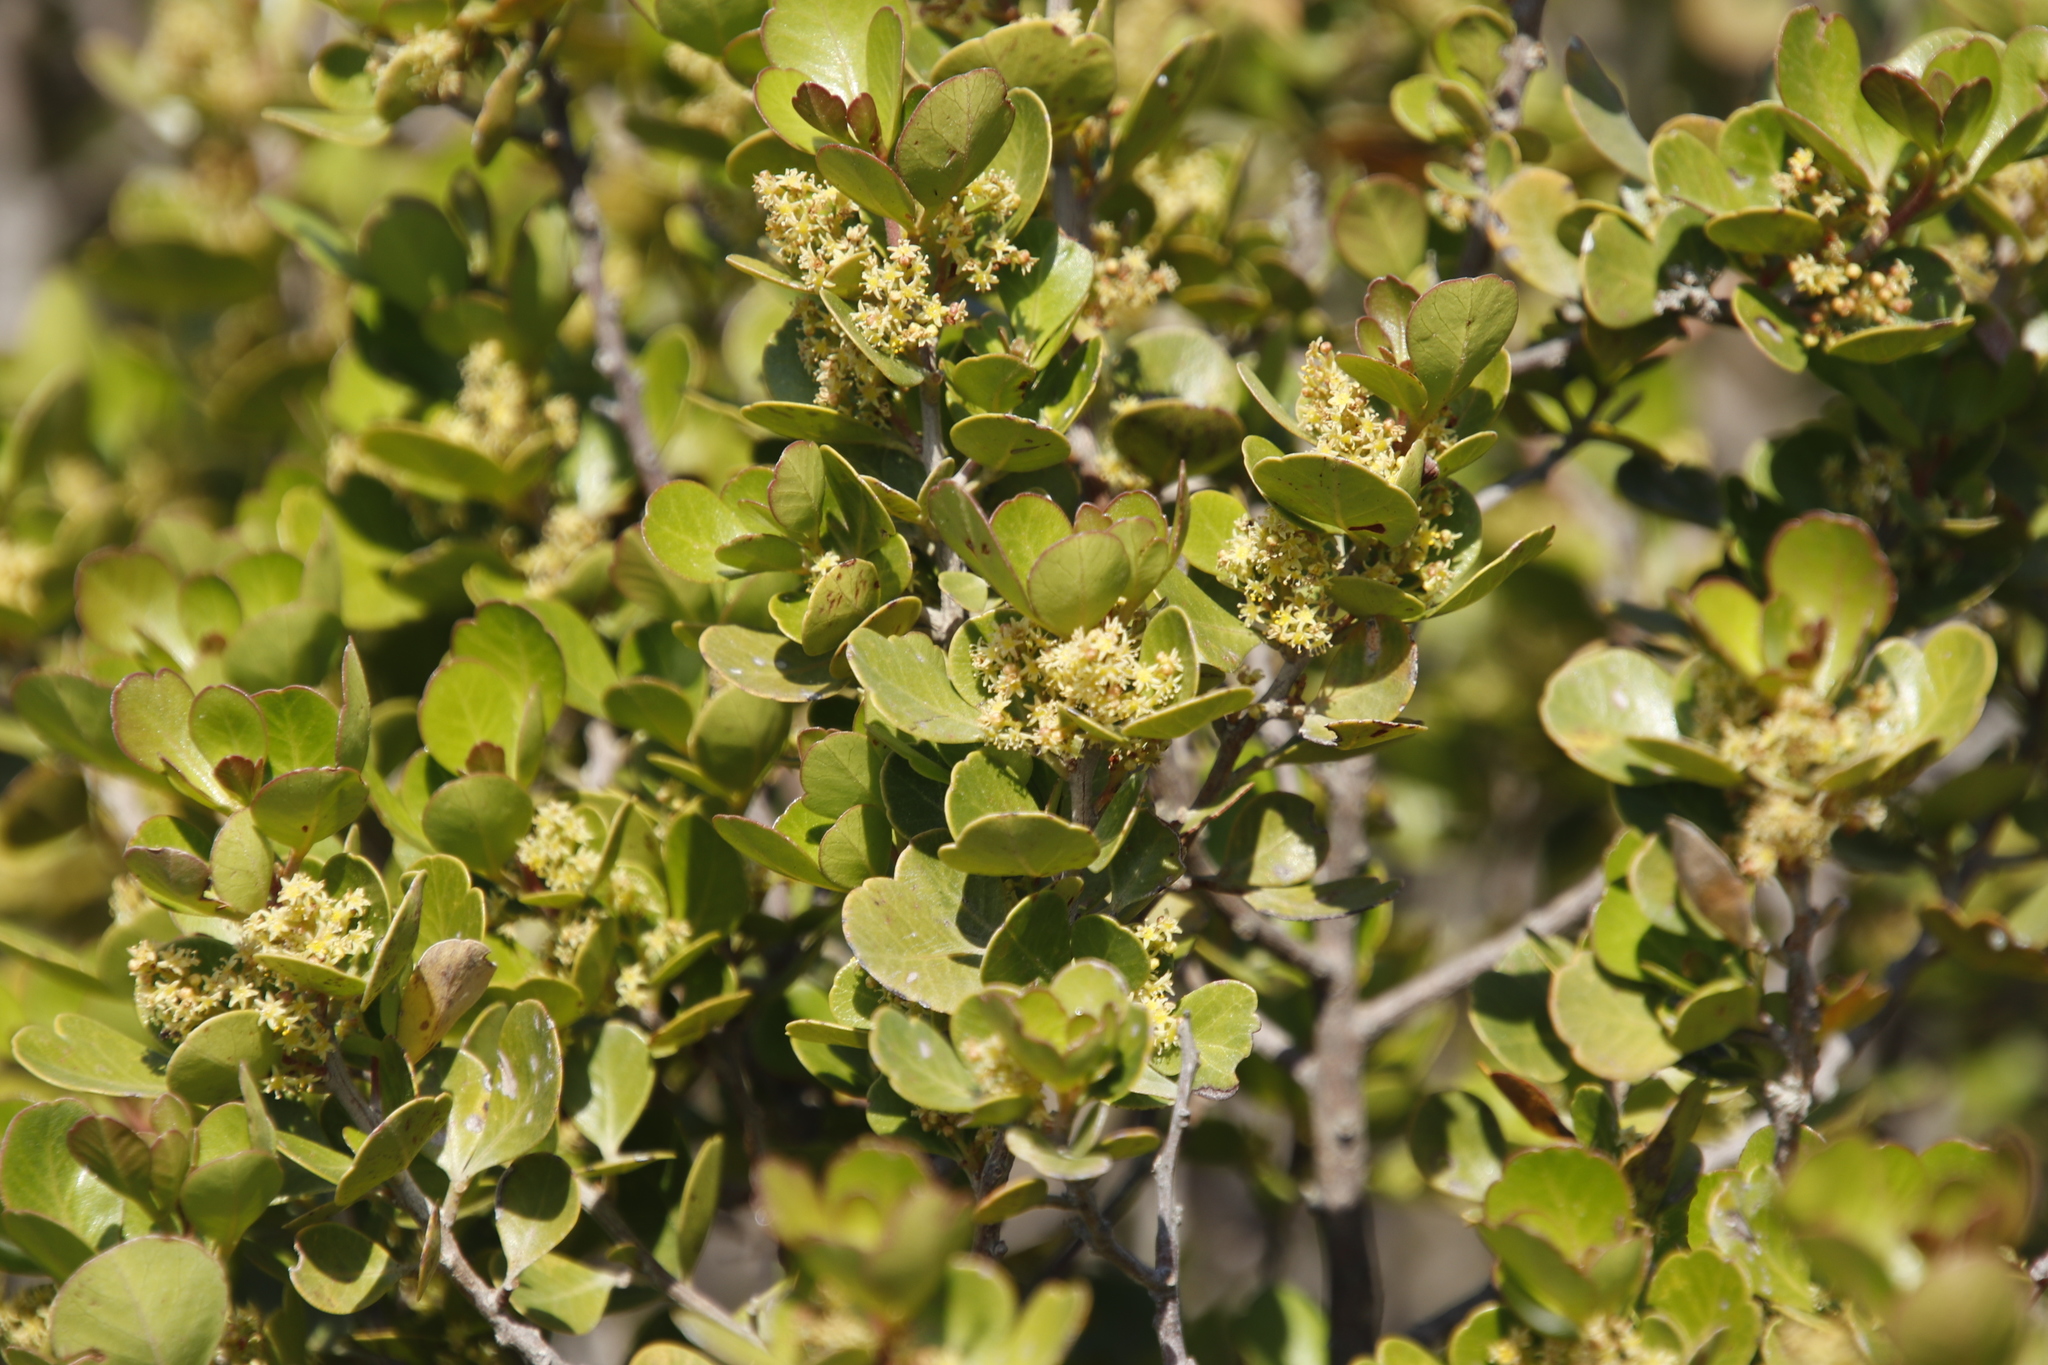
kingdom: Plantae
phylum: Tracheophyta
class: Magnoliopsida
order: Sapindales
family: Anacardiaceae
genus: Searsia
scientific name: Searsia lucida
